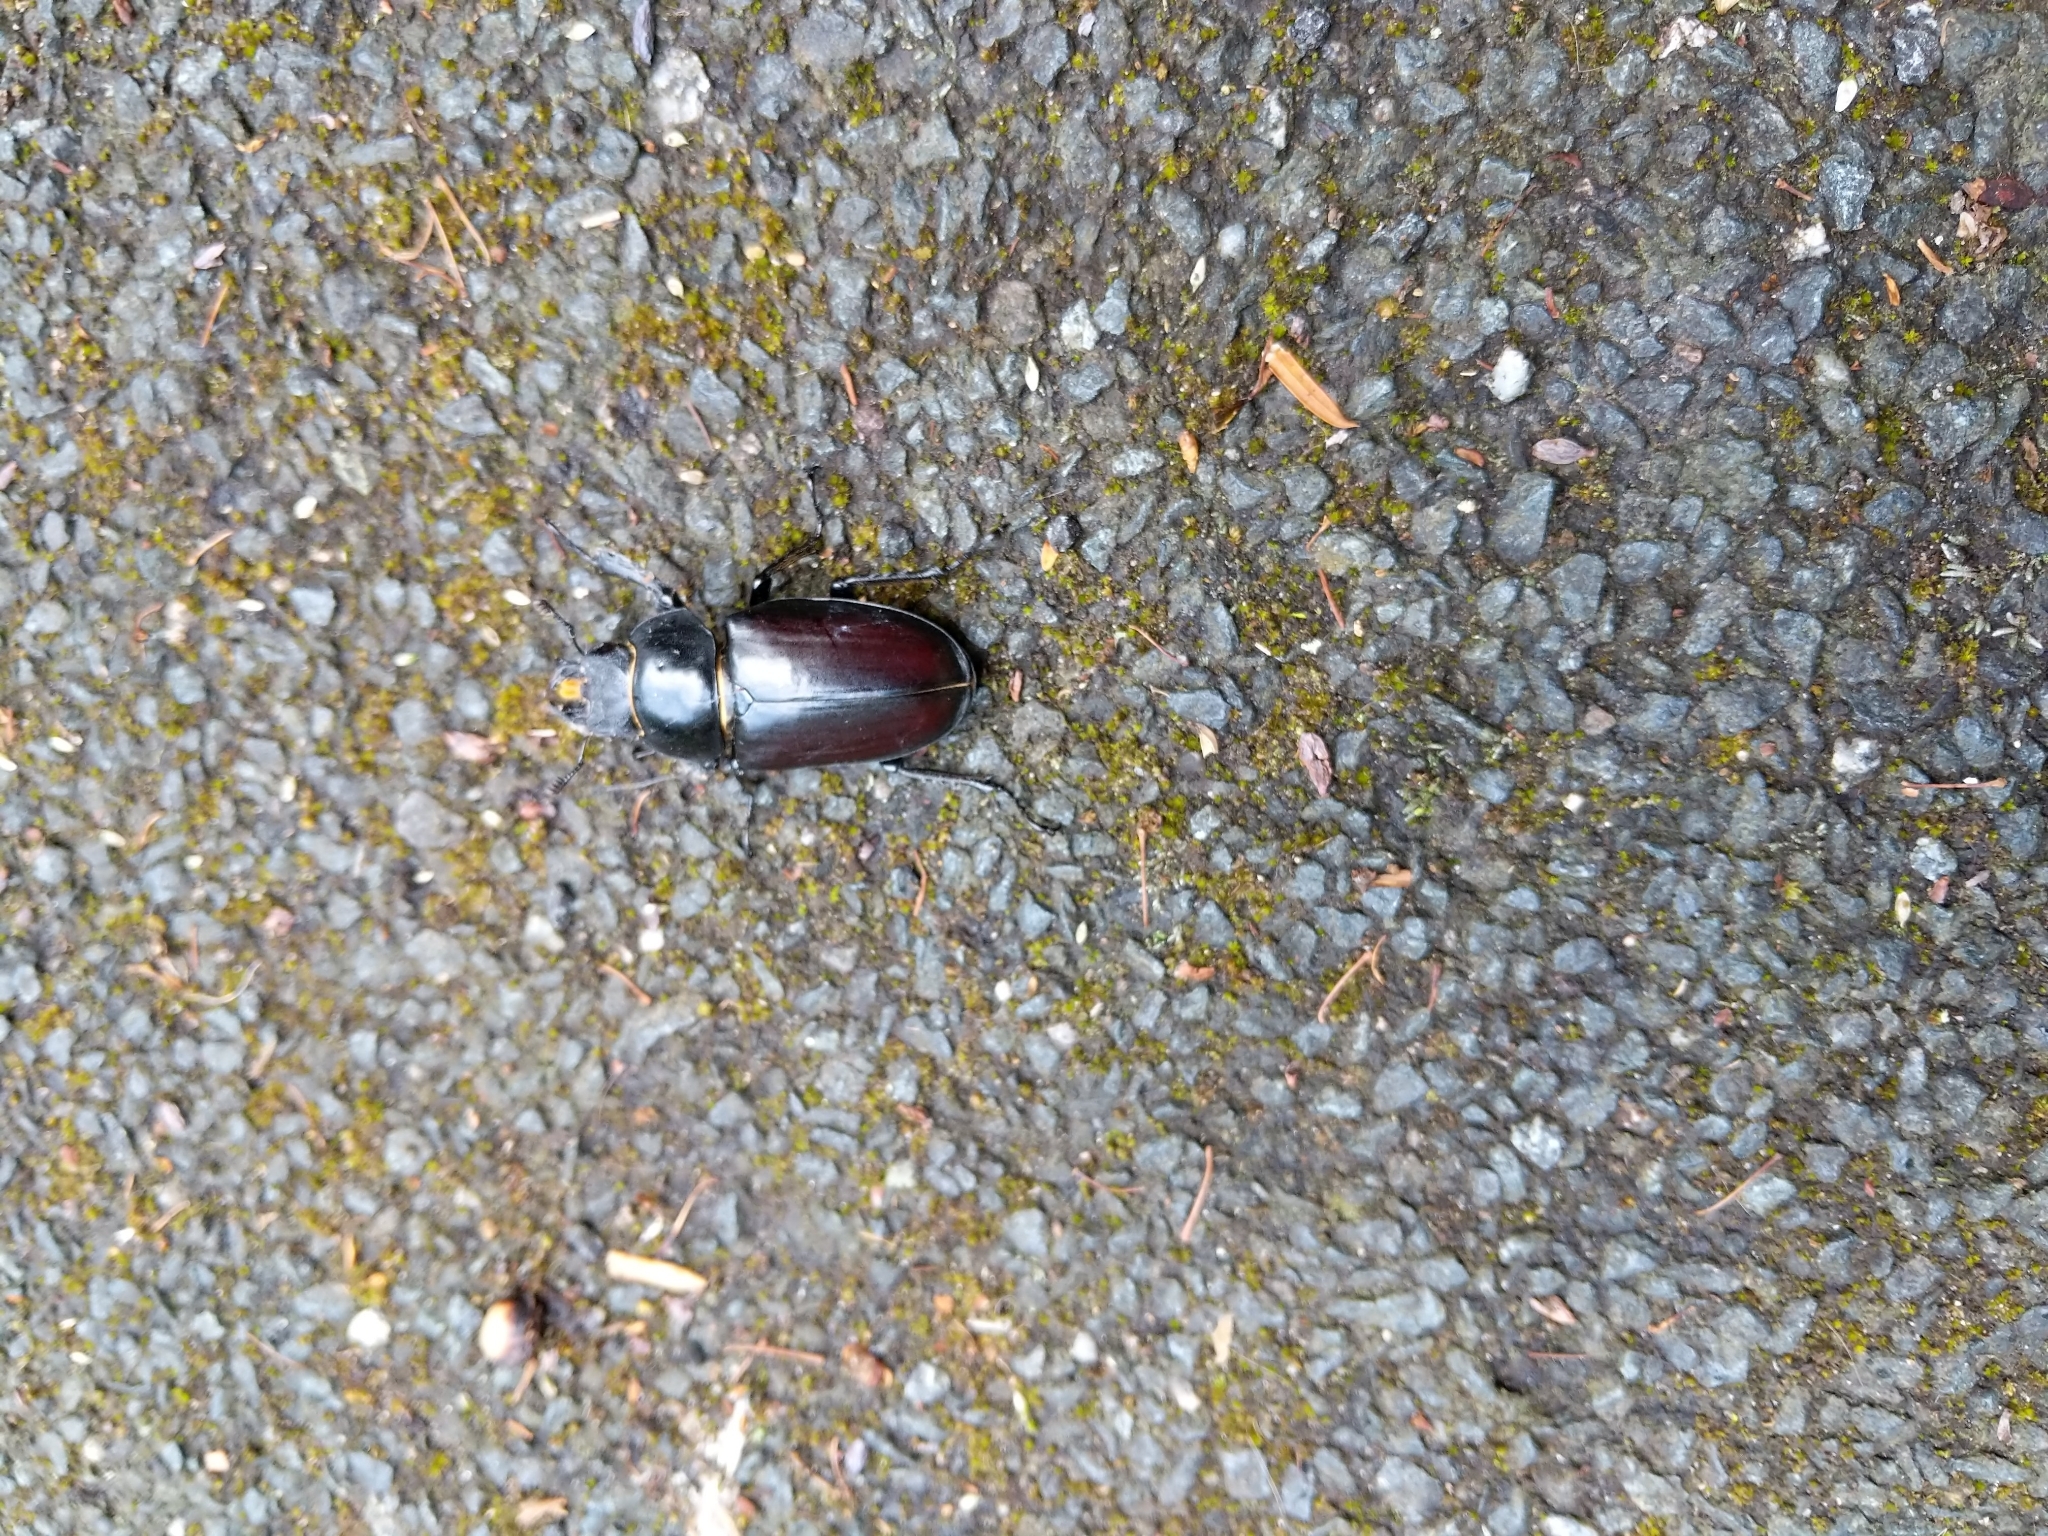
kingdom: Animalia
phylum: Arthropoda
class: Insecta
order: Coleoptera
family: Lucanidae
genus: Lucanus
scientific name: Lucanus cervus
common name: Stag beetle
